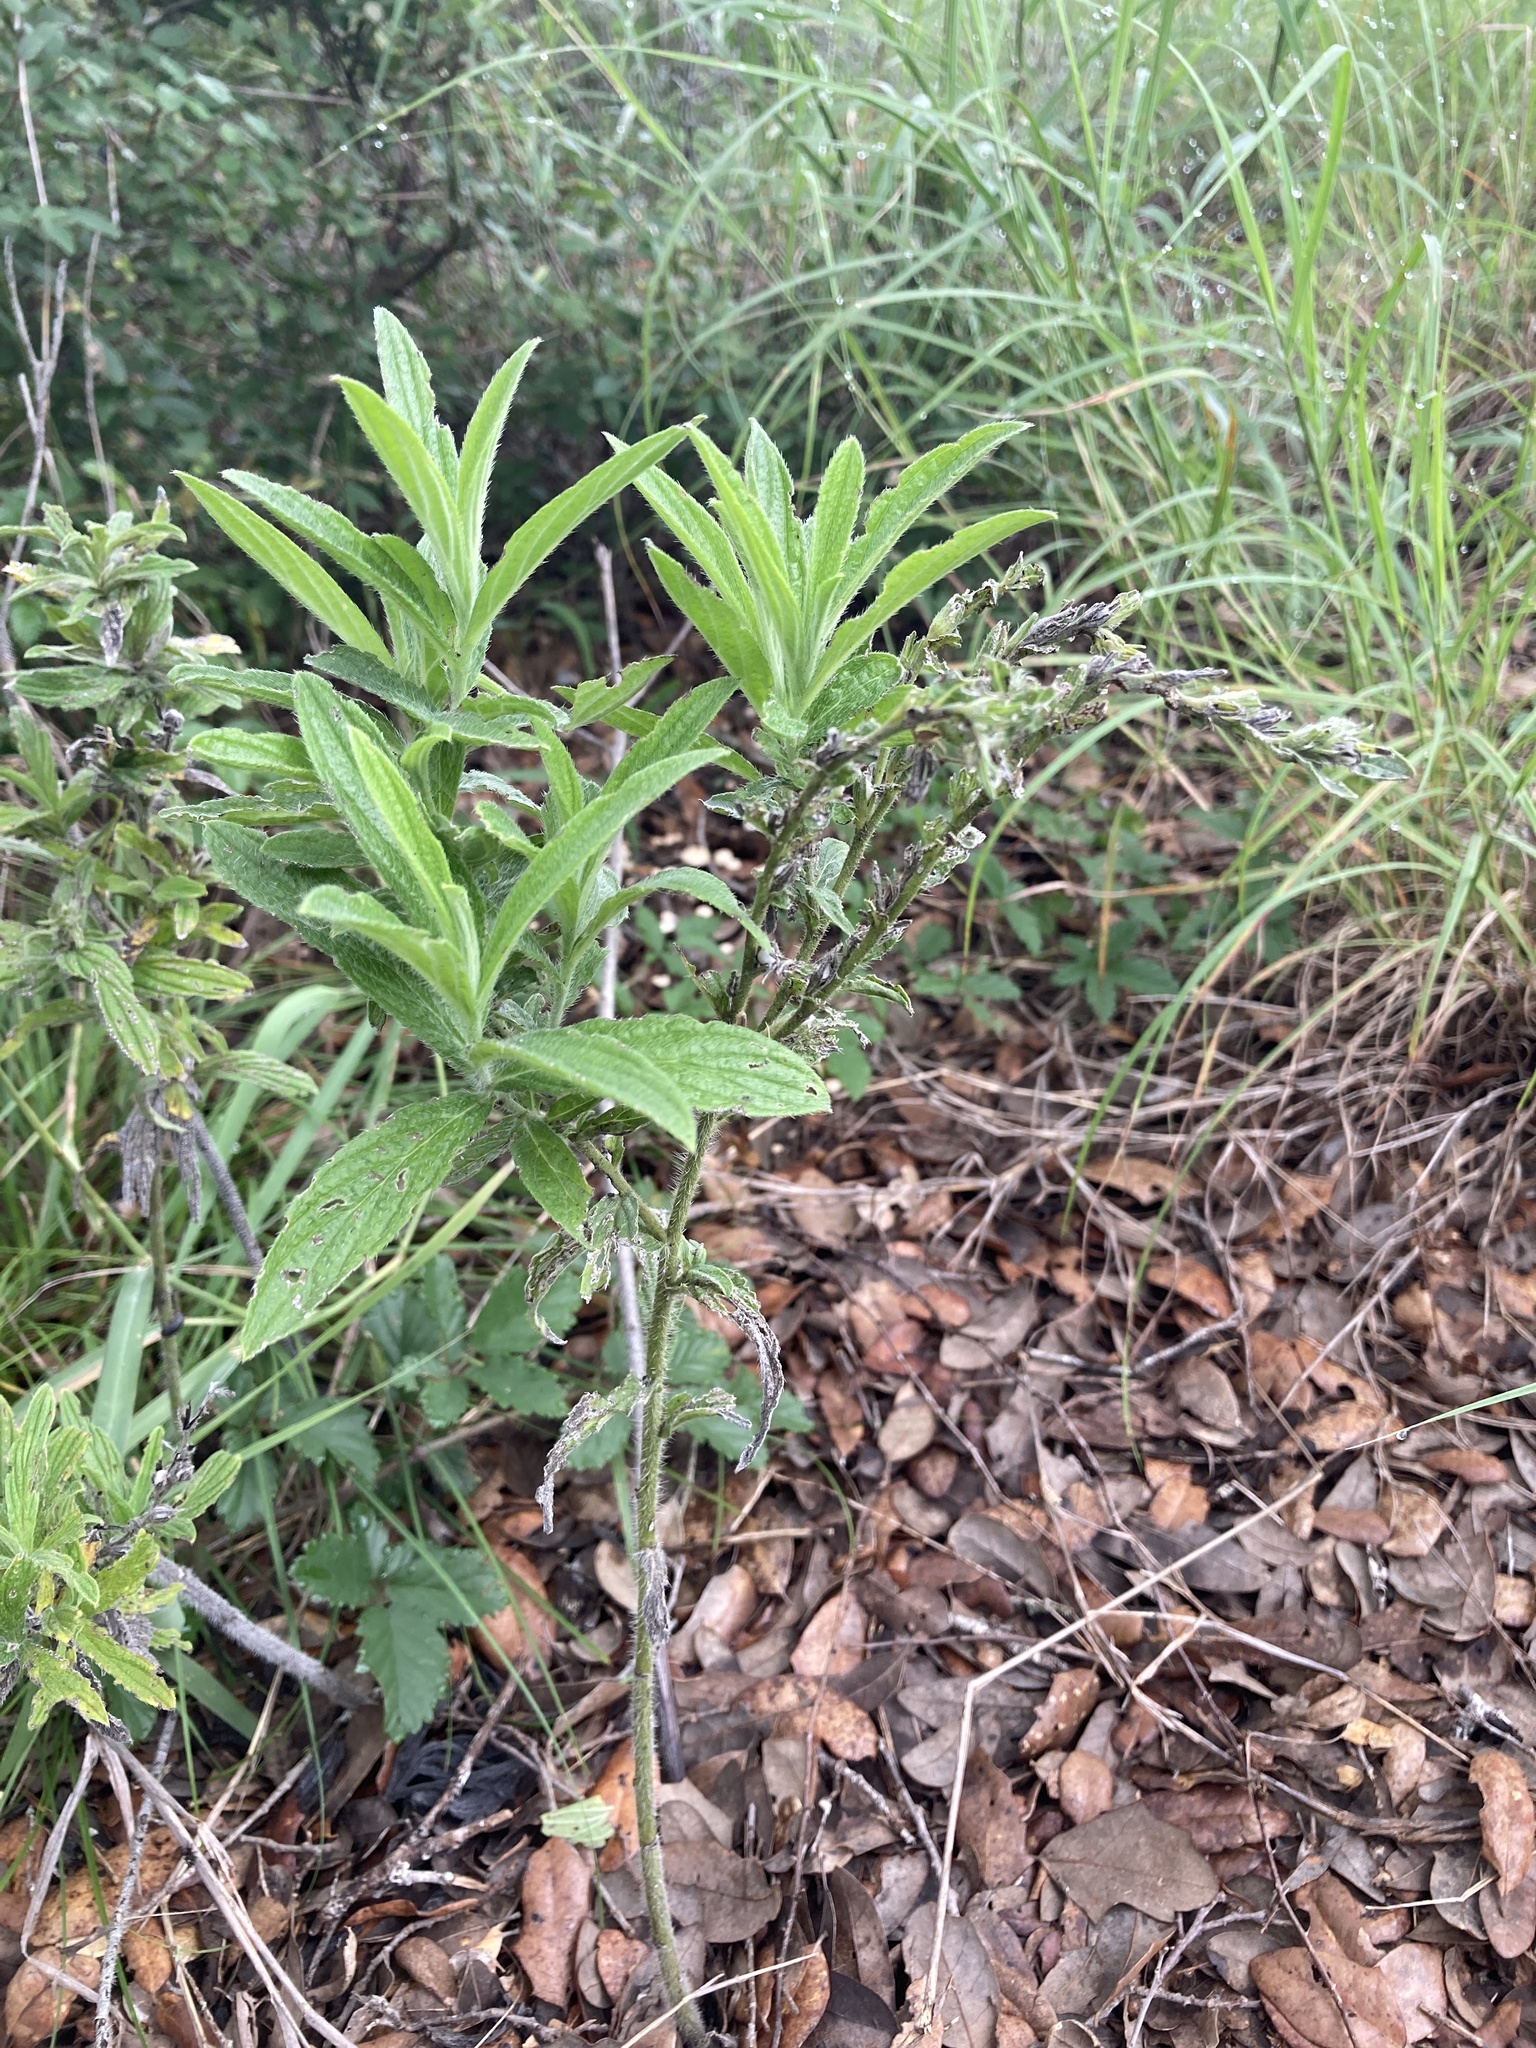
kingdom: Plantae
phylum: Tracheophyta
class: Magnoliopsida
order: Boraginales
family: Boraginaceae
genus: Lithospermum
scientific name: Lithospermum caroliniense
